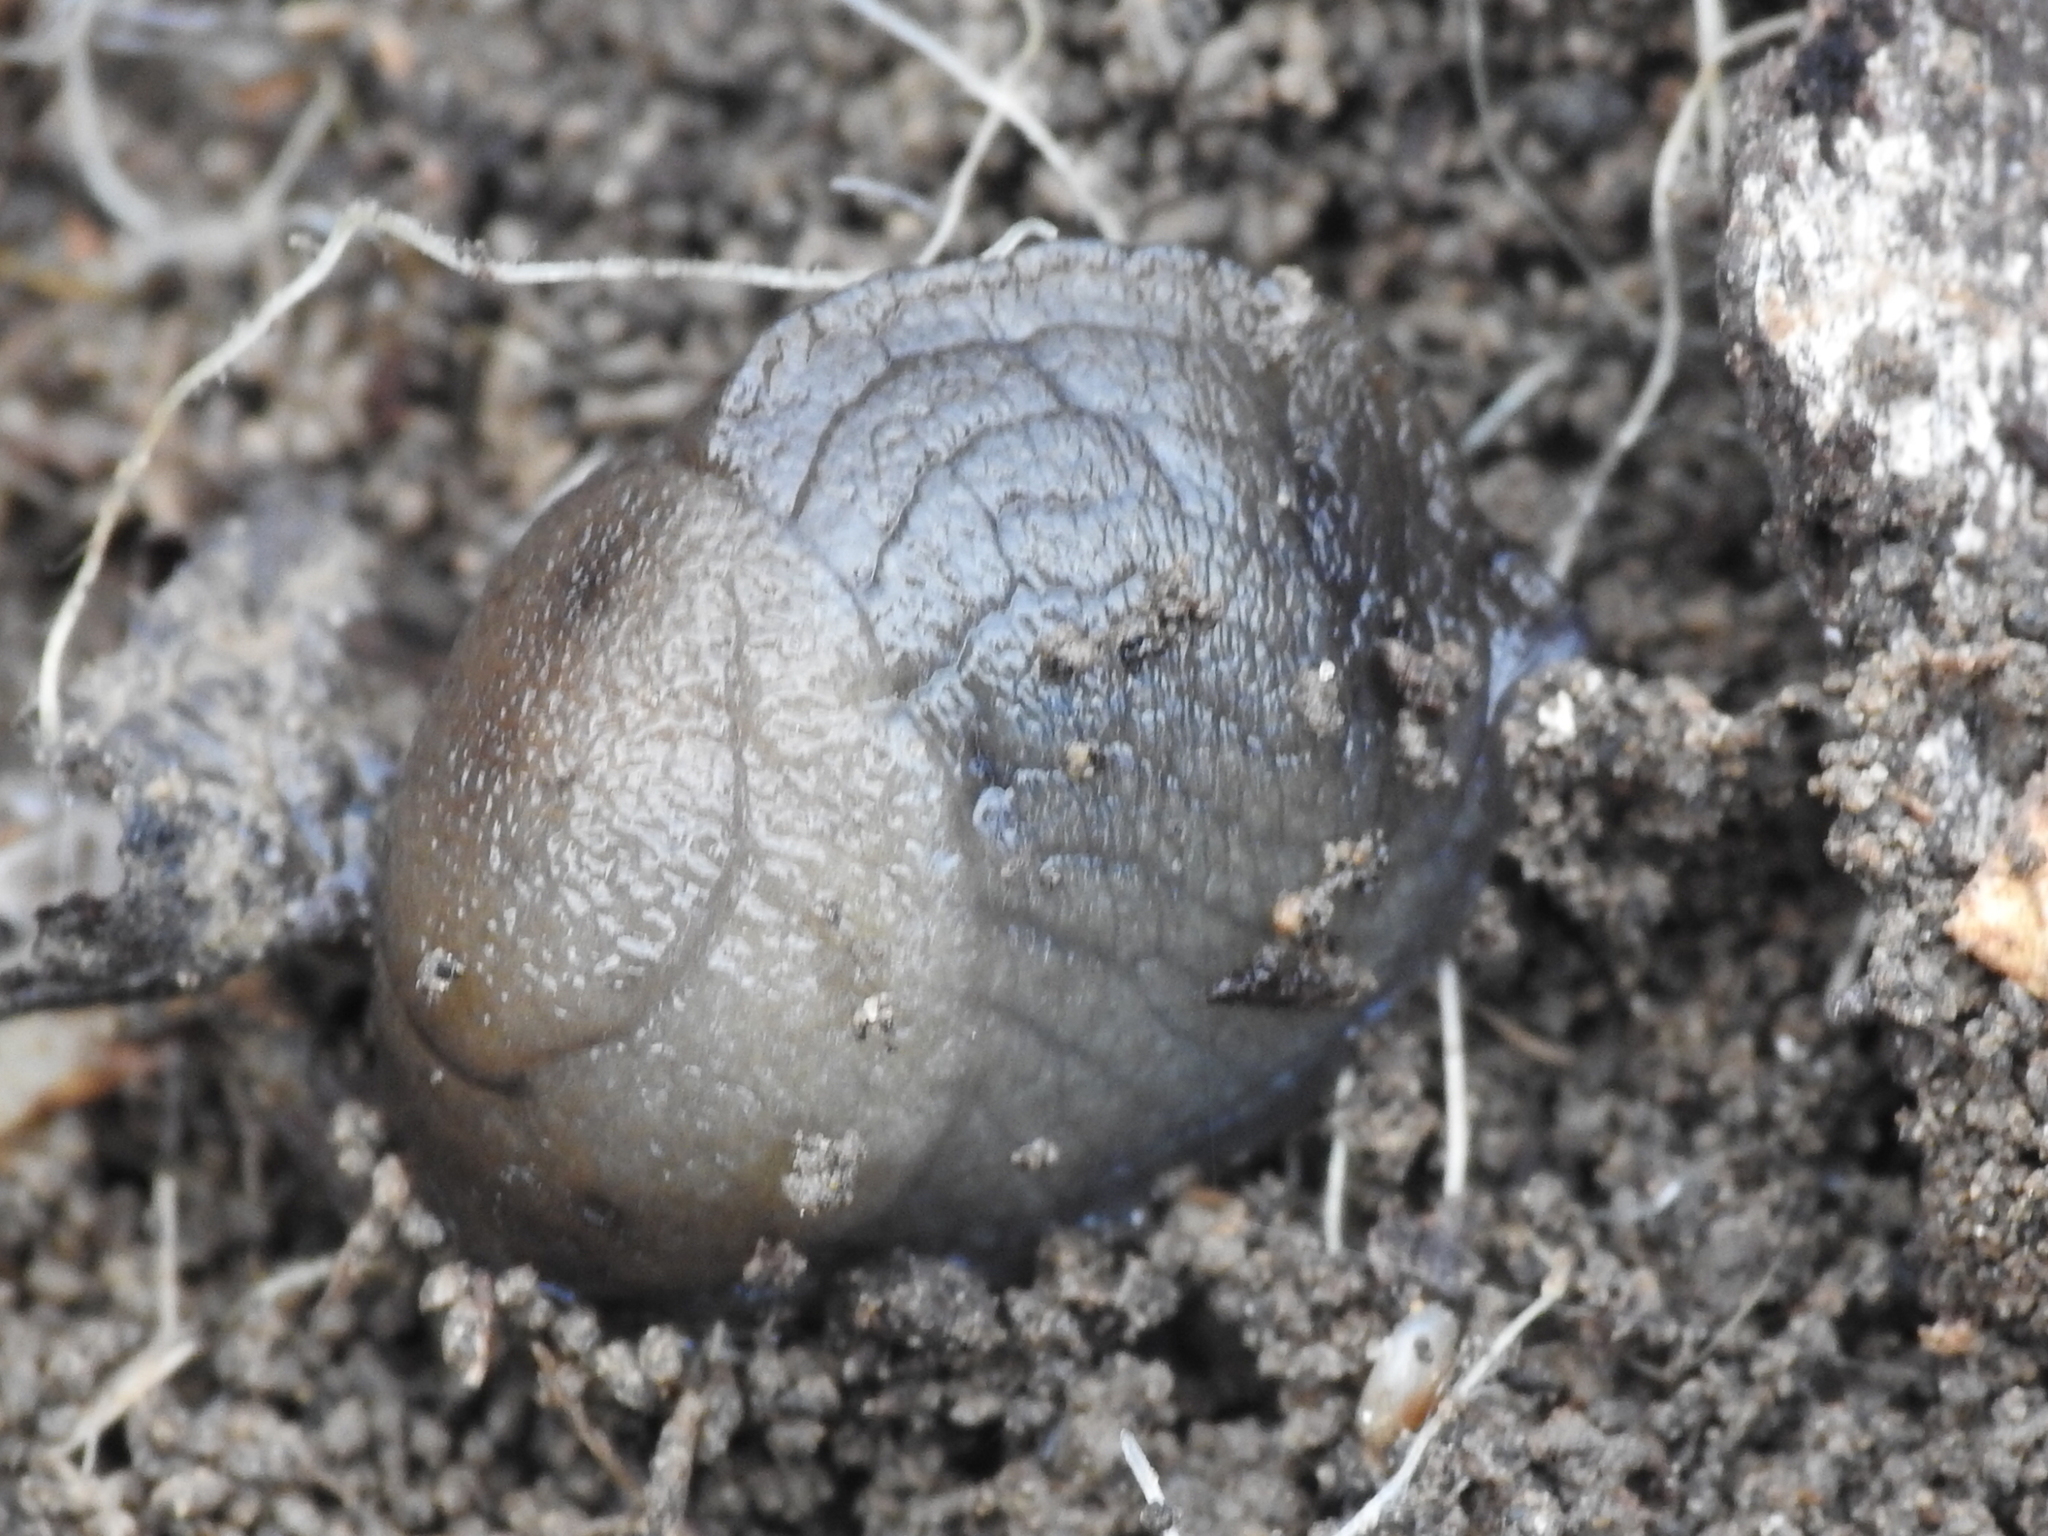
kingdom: Animalia
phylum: Mollusca
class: Gastropoda
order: Stylommatophora
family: Milacidae
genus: Milax
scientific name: Milax gagates
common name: Greenhouse slug
